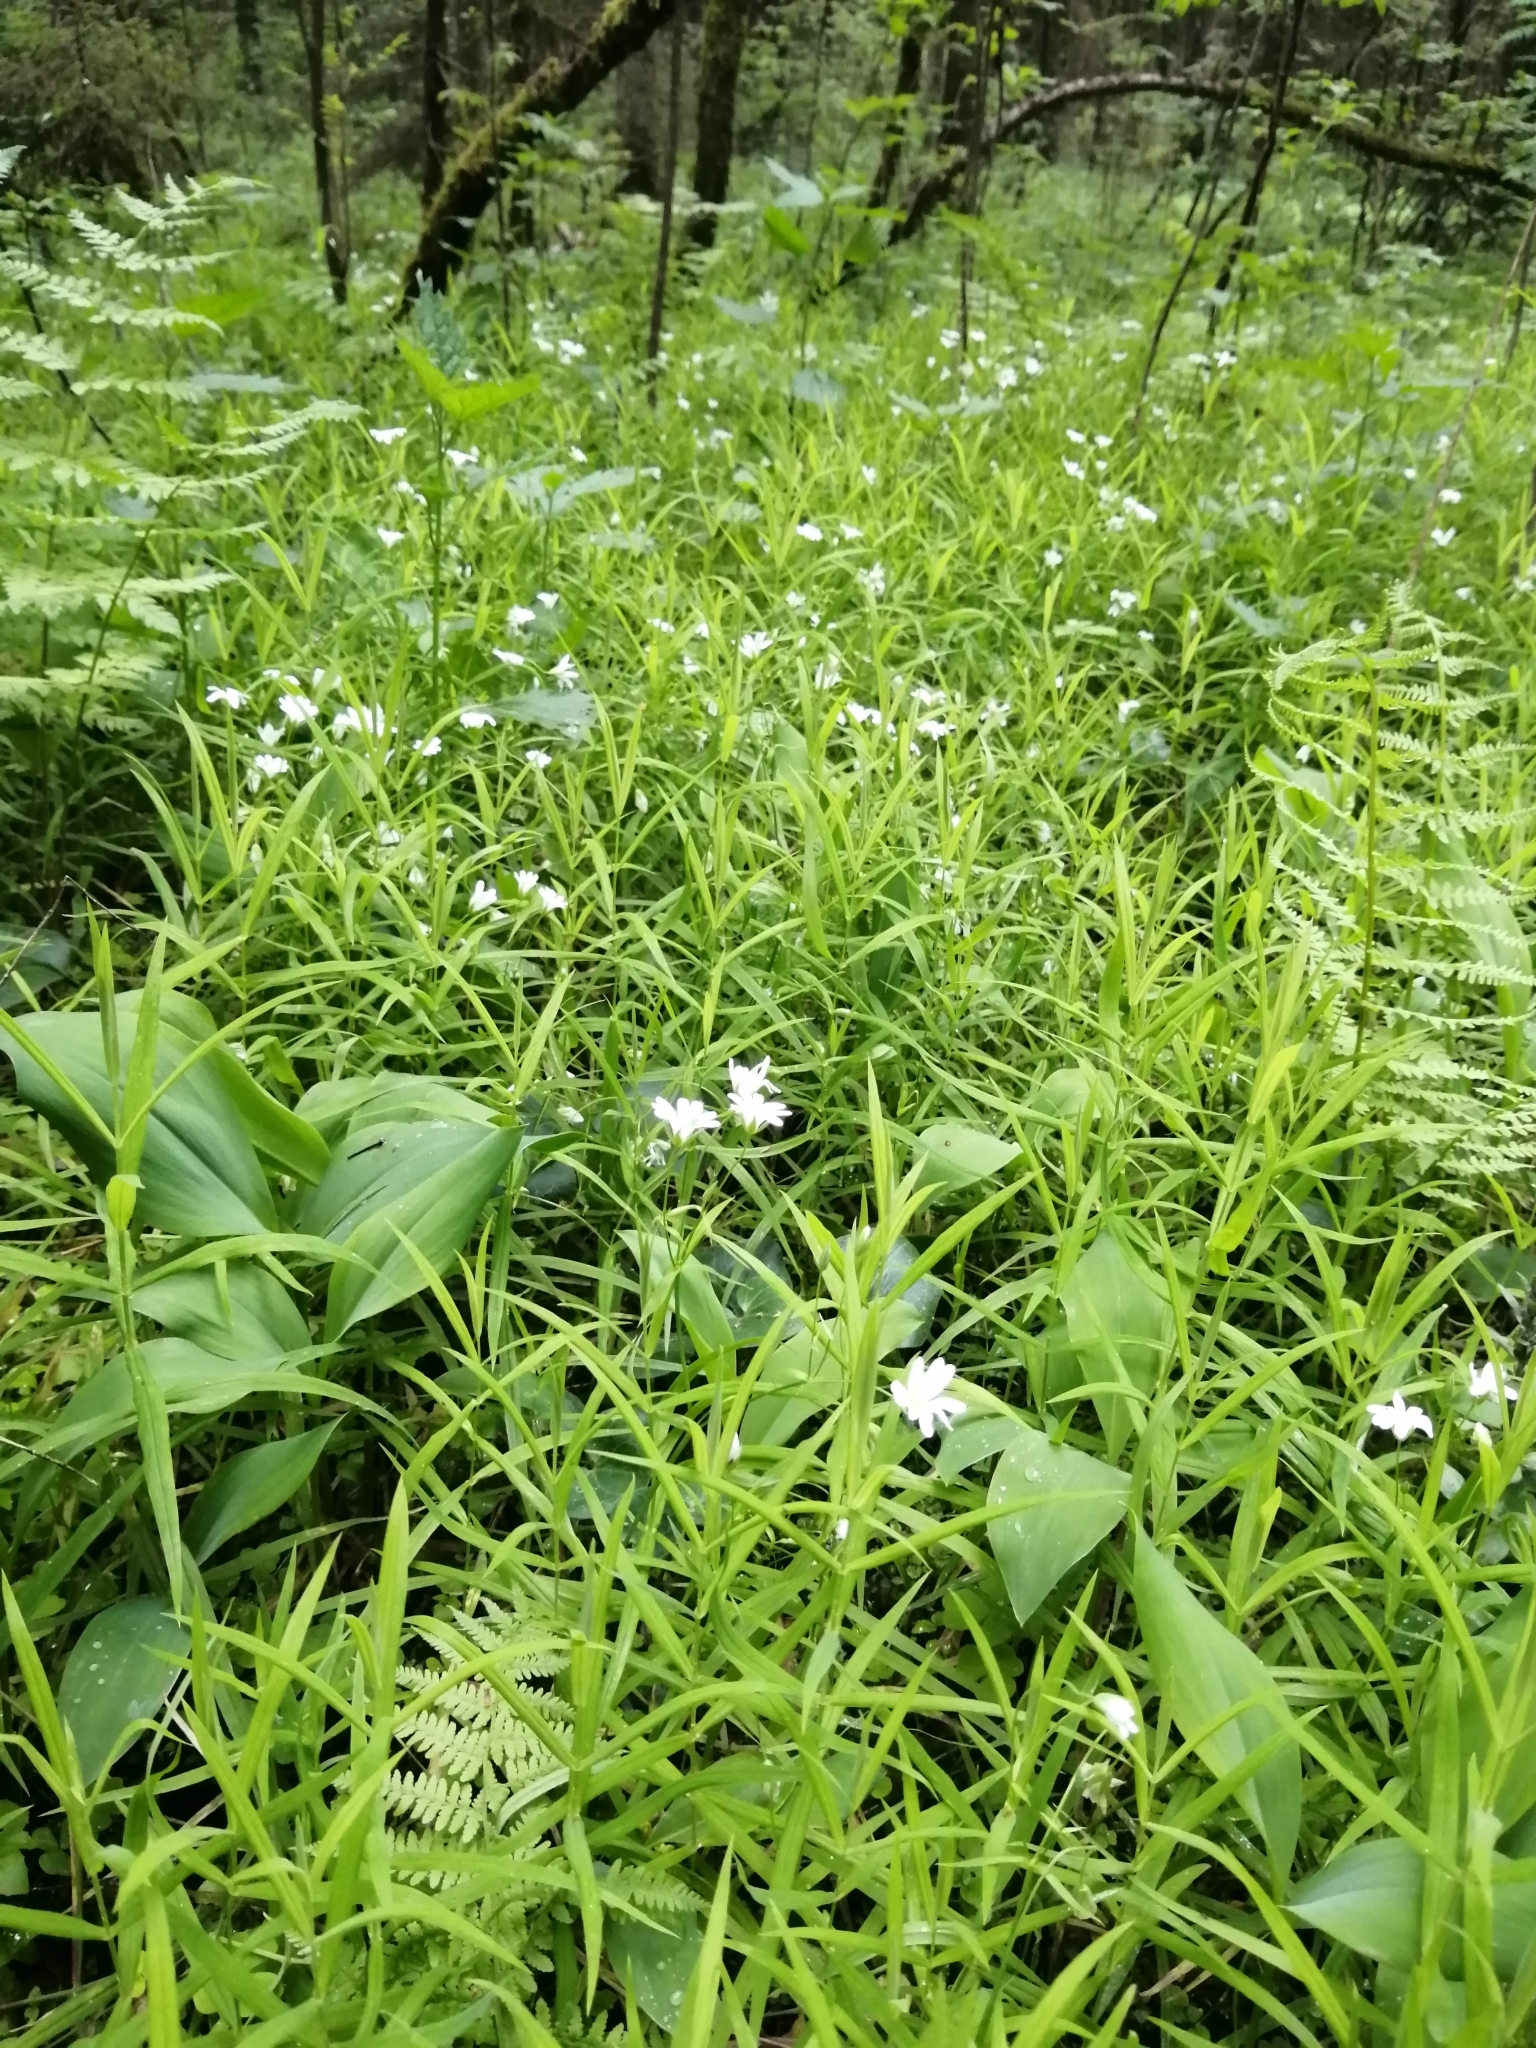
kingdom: Plantae
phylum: Tracheophyta
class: Magnoliopsida
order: Caryophyllales
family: Caryophyllaceae
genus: Rabelera
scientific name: Rabelera holostea
